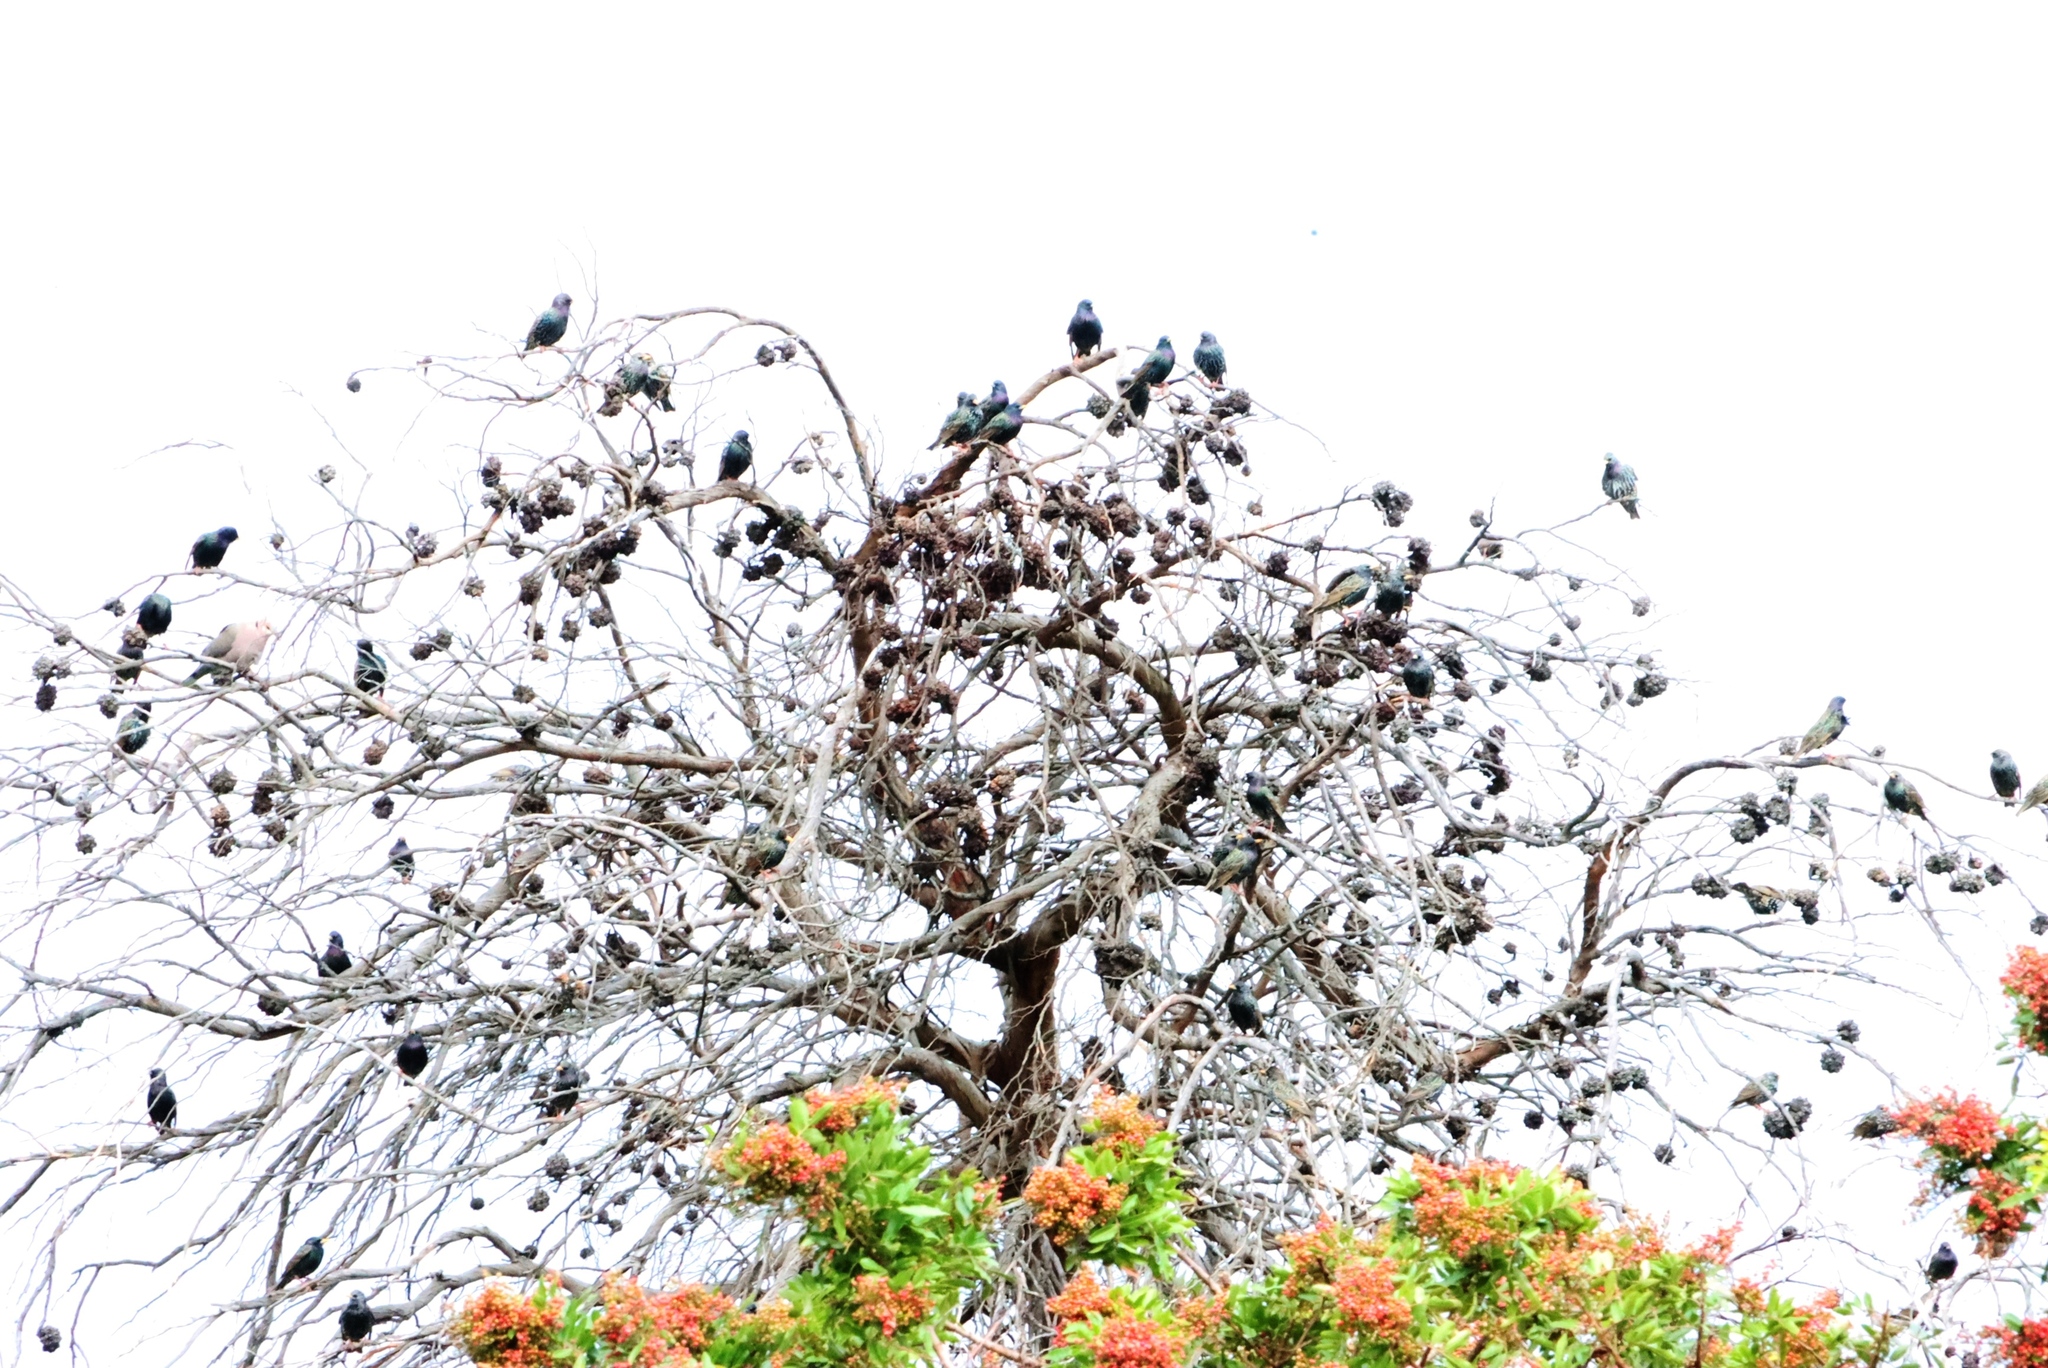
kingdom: Animalia
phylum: Chordata
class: Aves
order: Passeriformes
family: Sturnidae
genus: Sturnus
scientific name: Sturnus vulgaris
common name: Common starling
